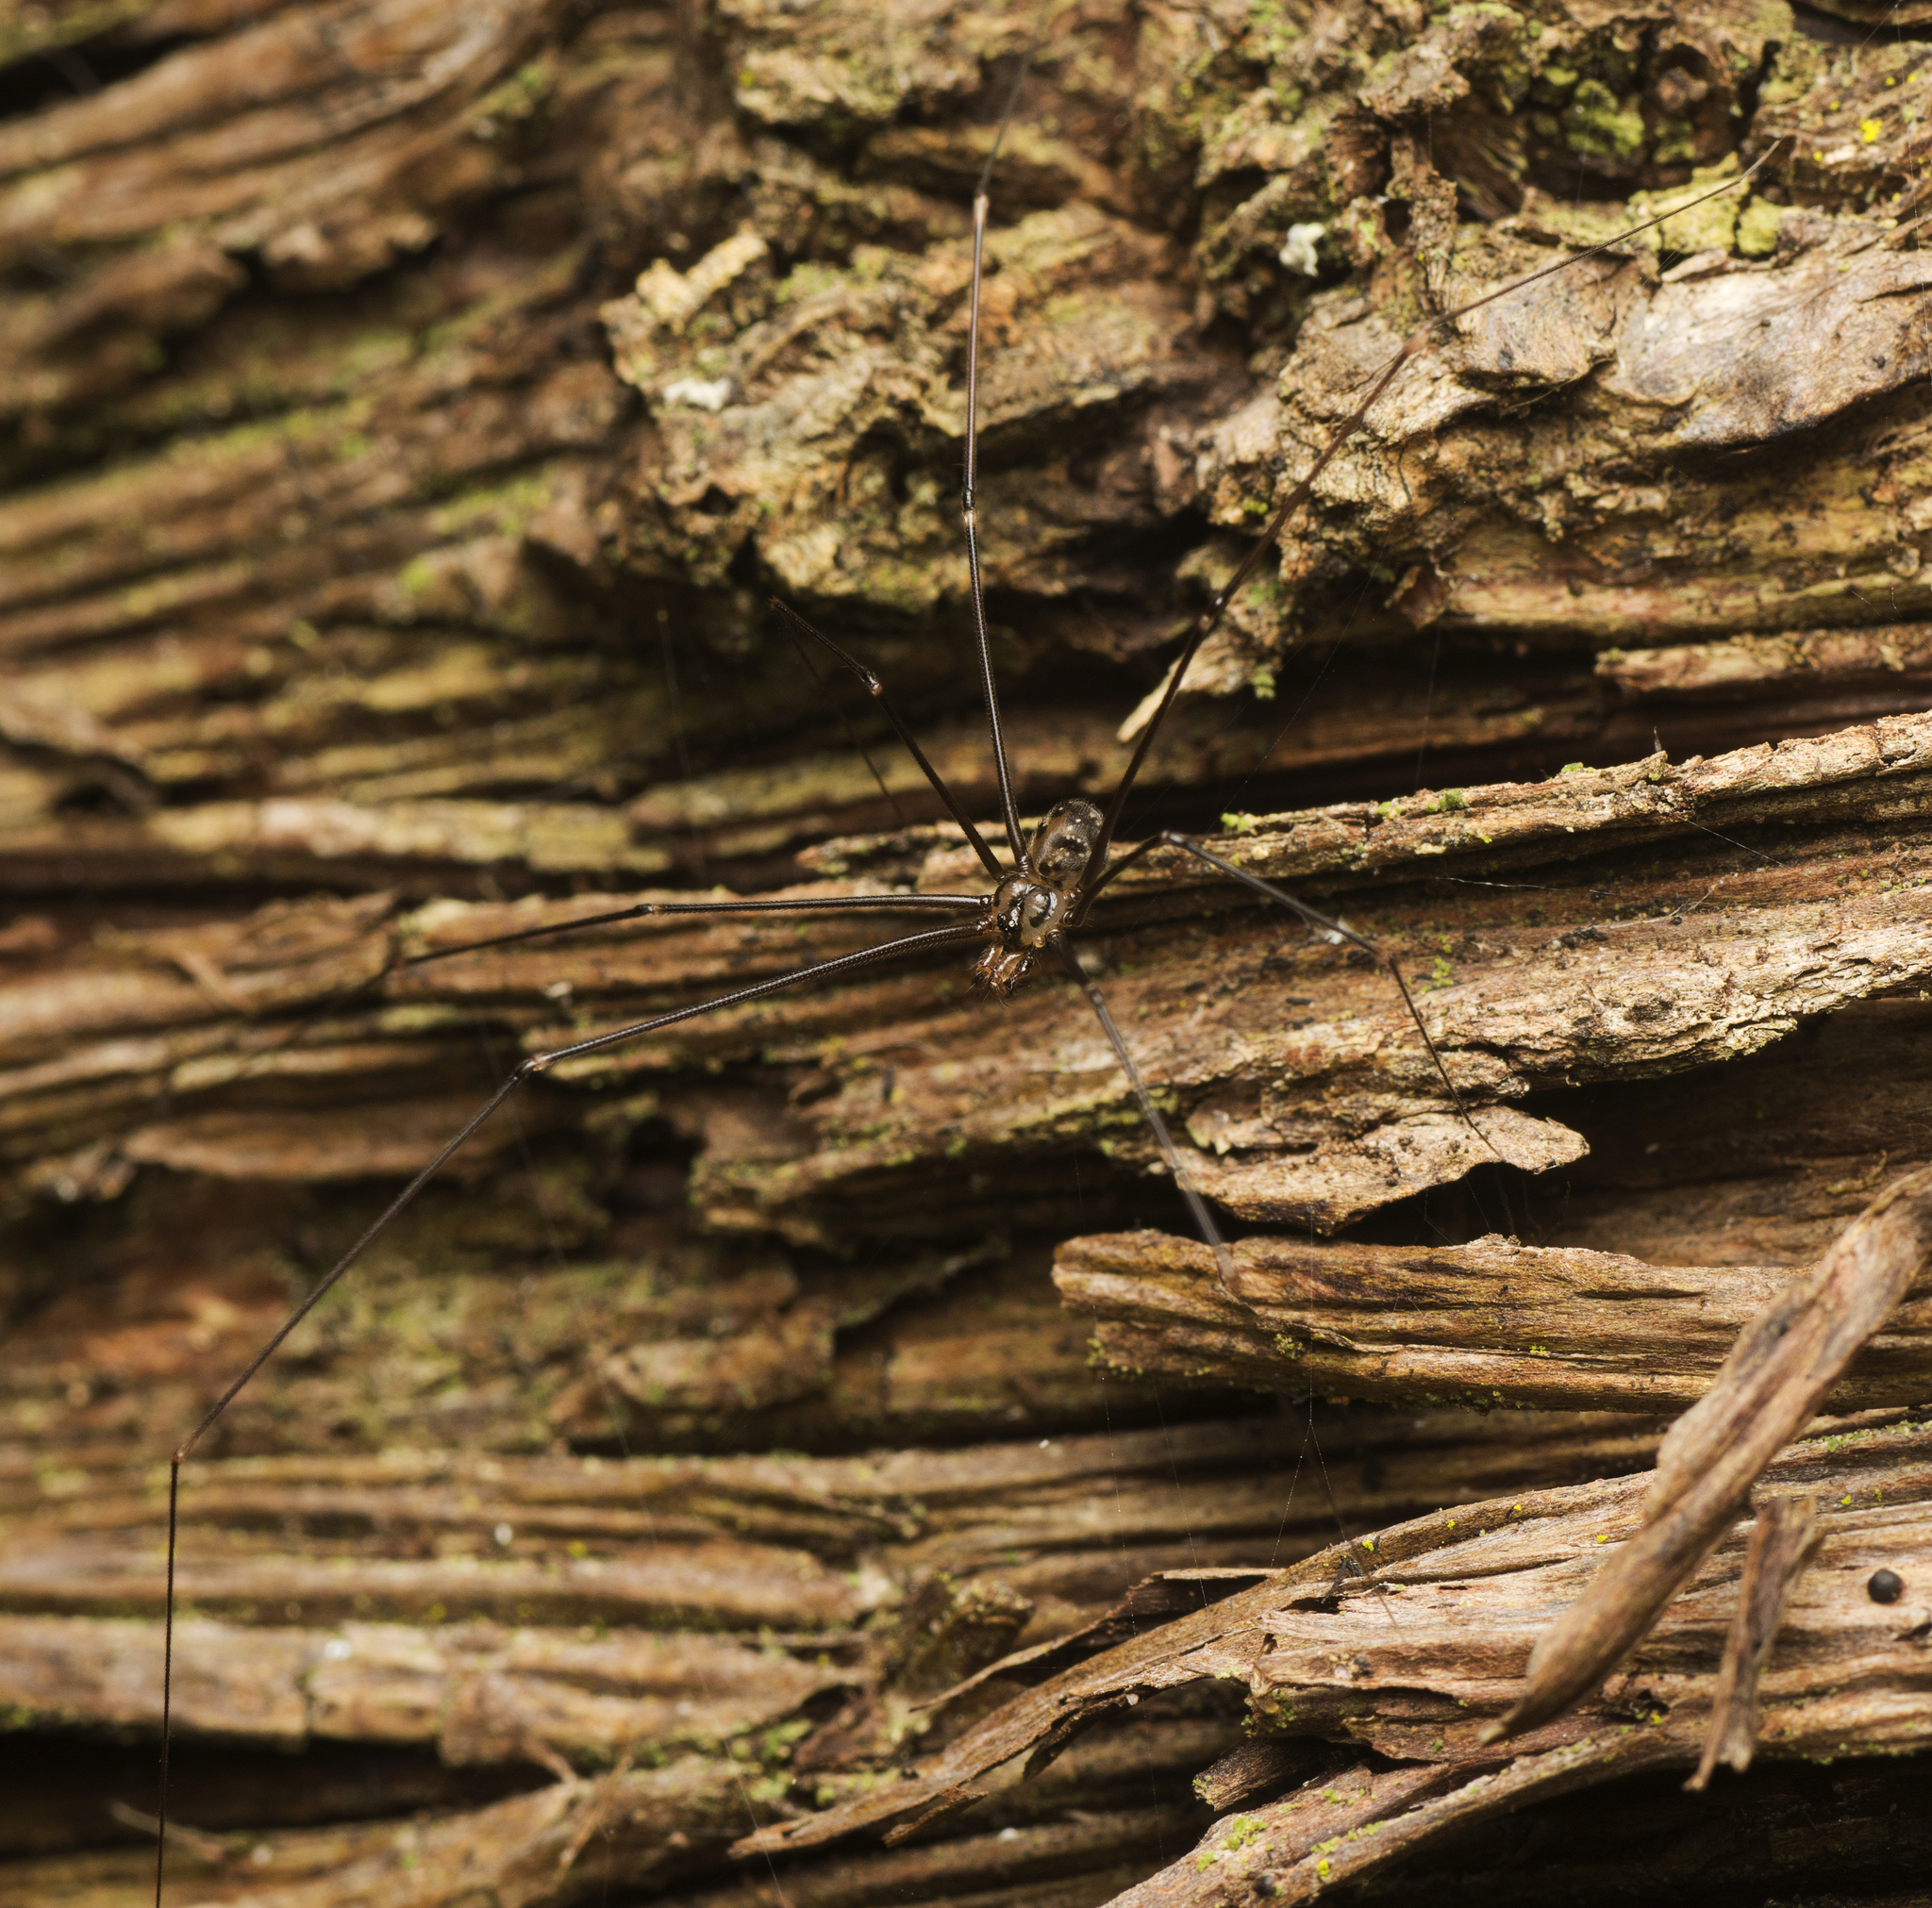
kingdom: Animalia
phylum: Arthropoda
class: Arachnida
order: Araneae
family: Pholcidae
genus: Wugigarra
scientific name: Wugigarra yawai
